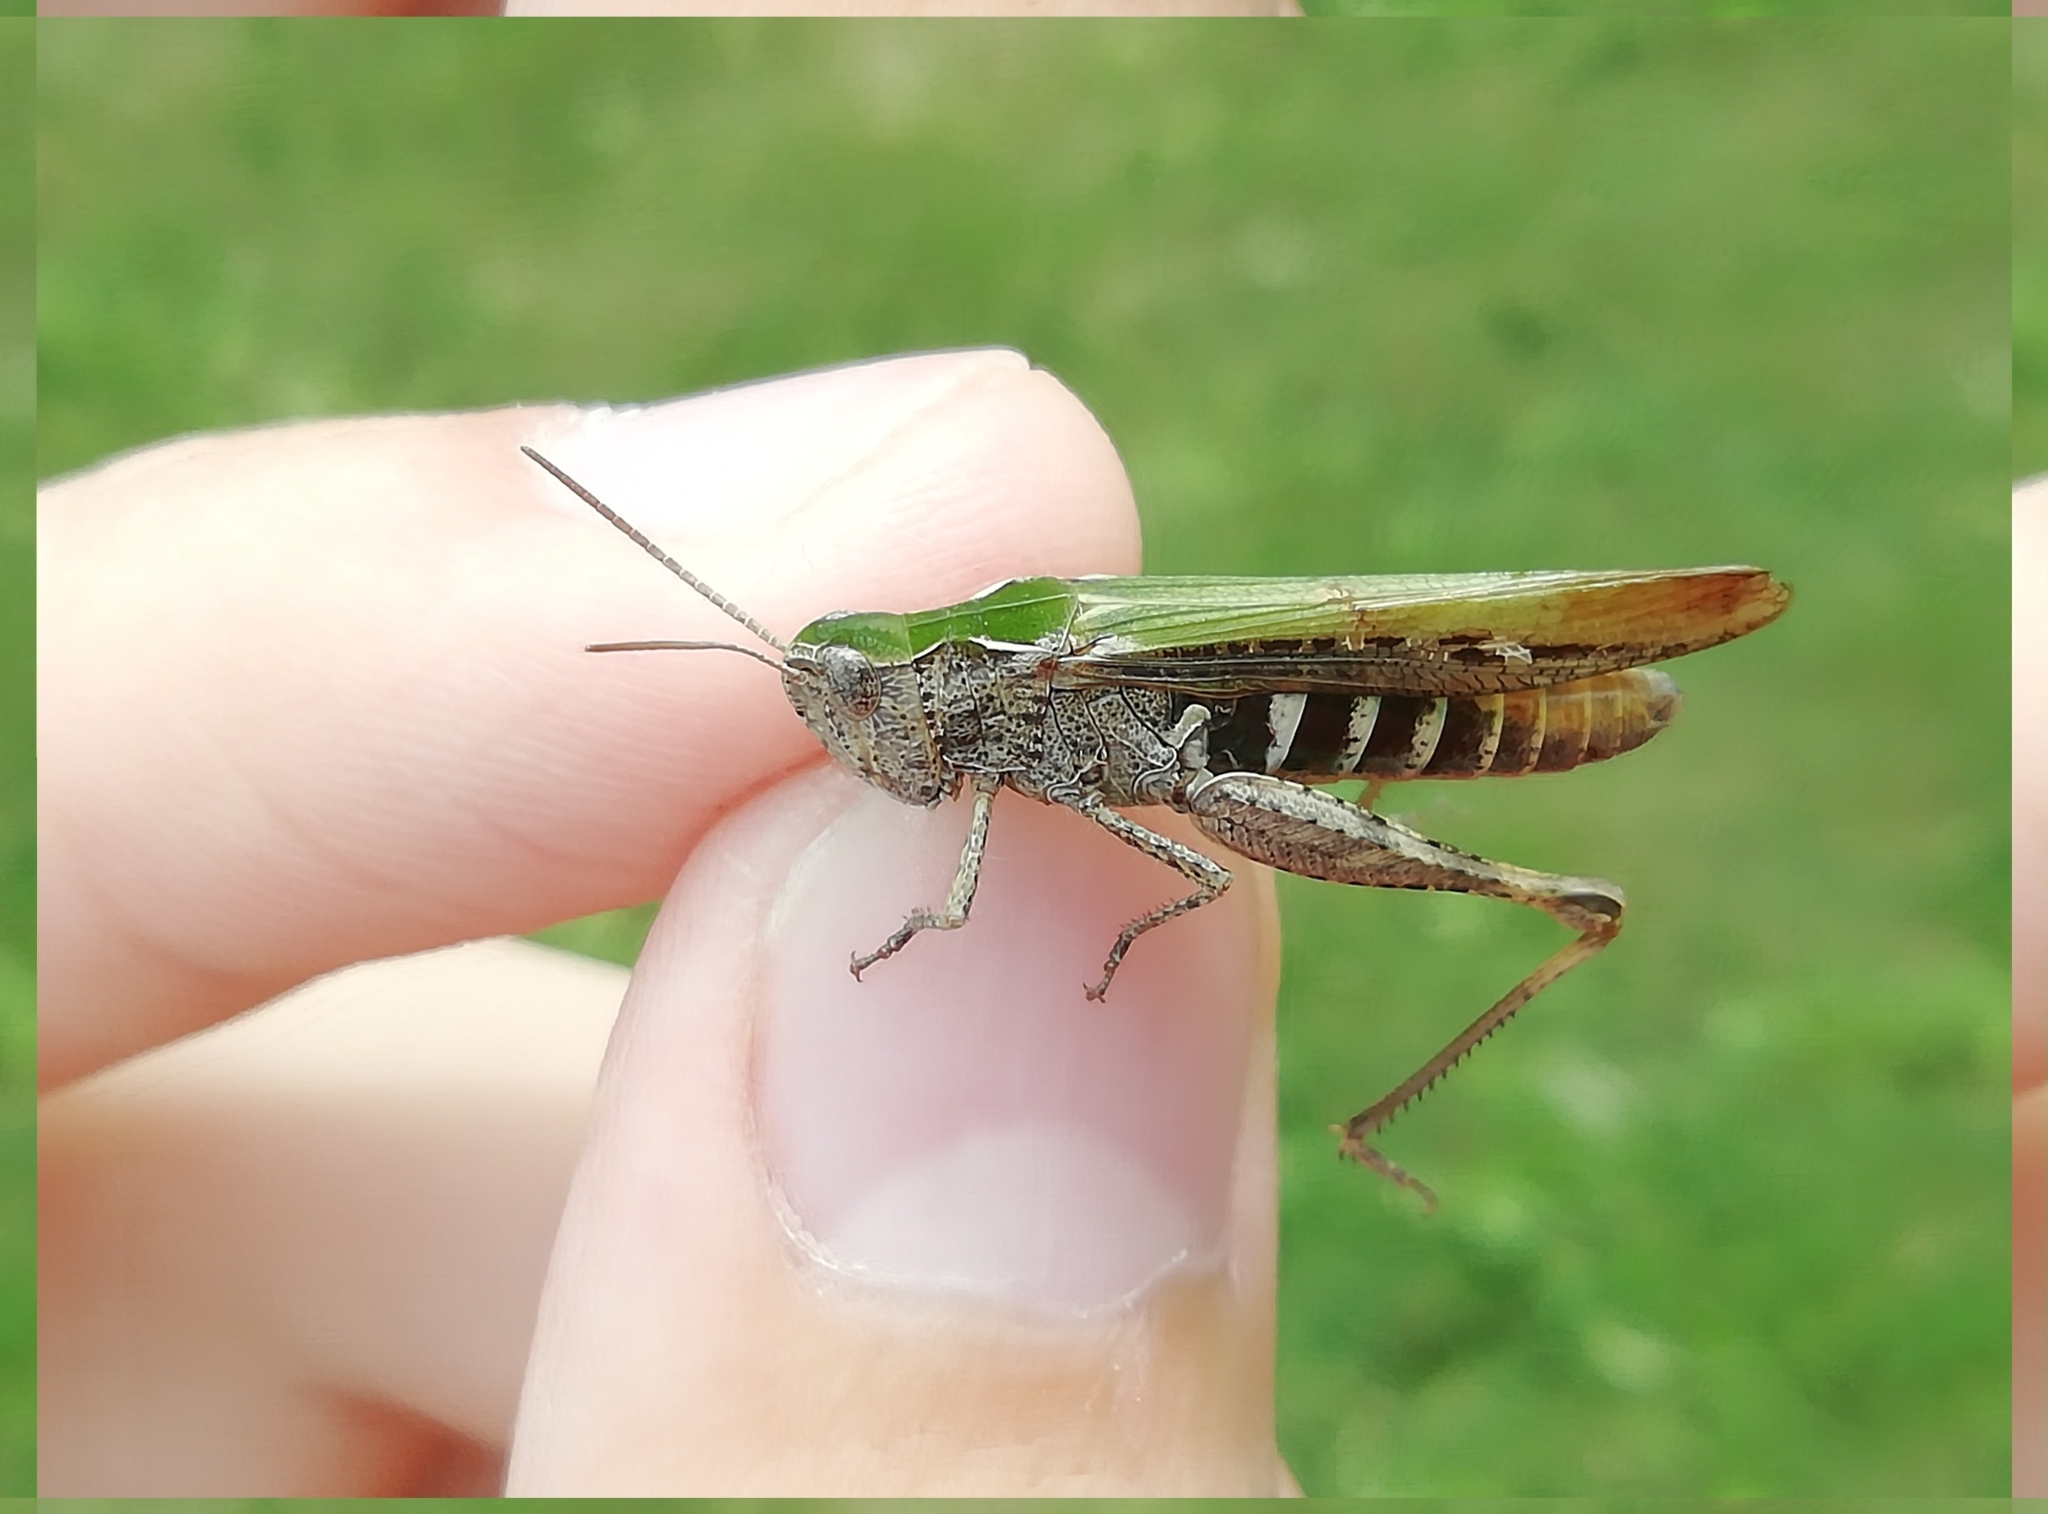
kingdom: Animalia
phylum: Arthropoda
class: Insecta
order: Orthoptera
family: Acrididae
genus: Chorthippus
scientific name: Chorthippus biguttulus
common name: Bow-winged grasshopper
